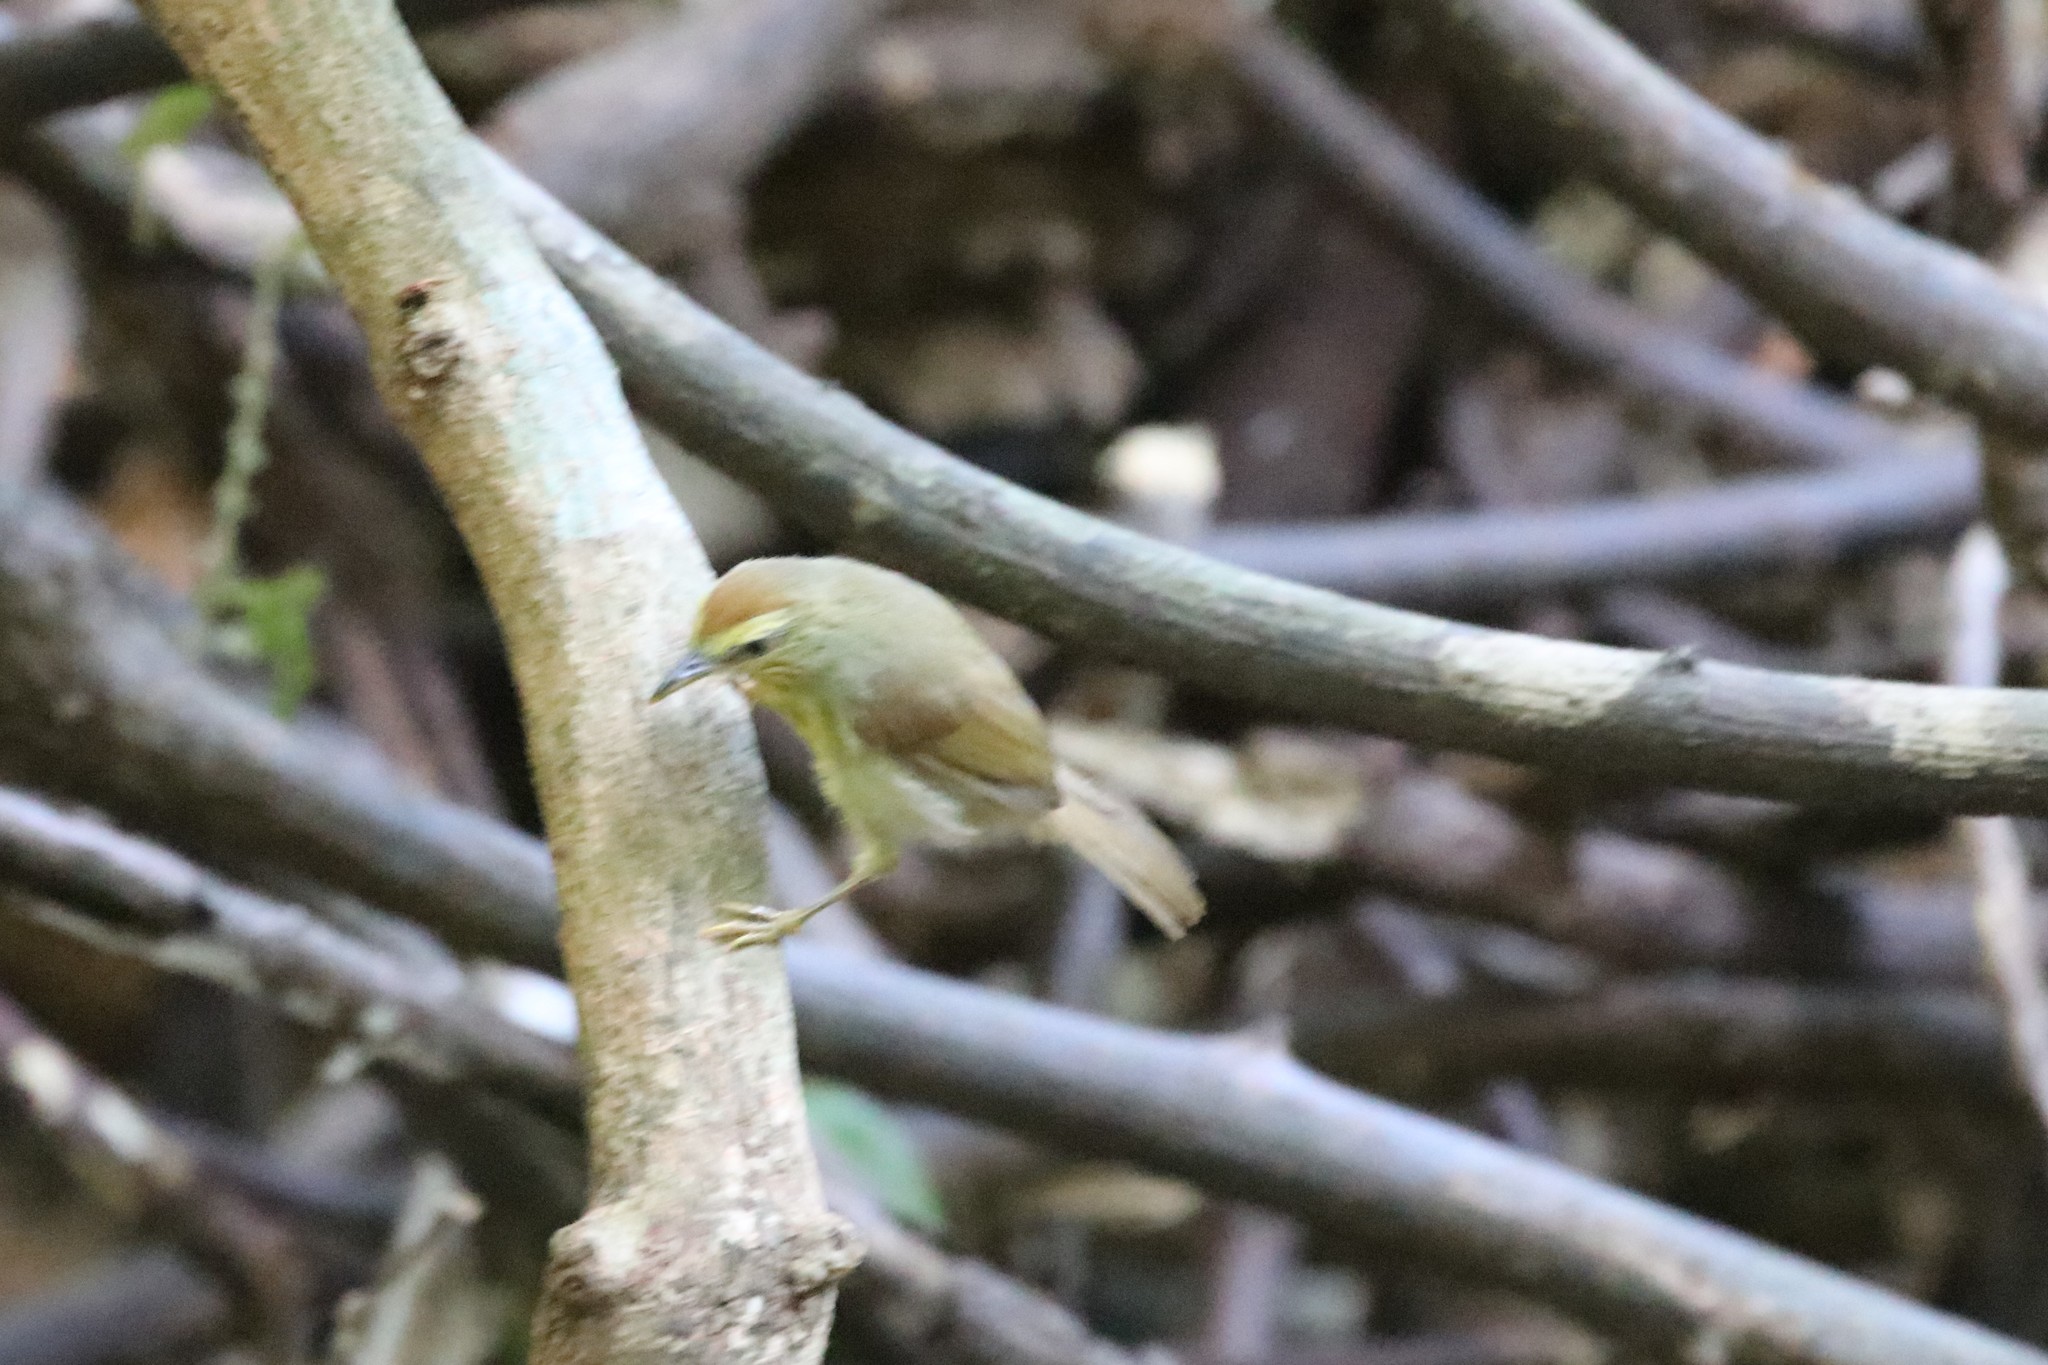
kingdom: Animalia
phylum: Chordata
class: Aves
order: Passeriformes
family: Timaliidae
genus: Macronus
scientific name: Macronus gularis
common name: Striped tit-babbler
